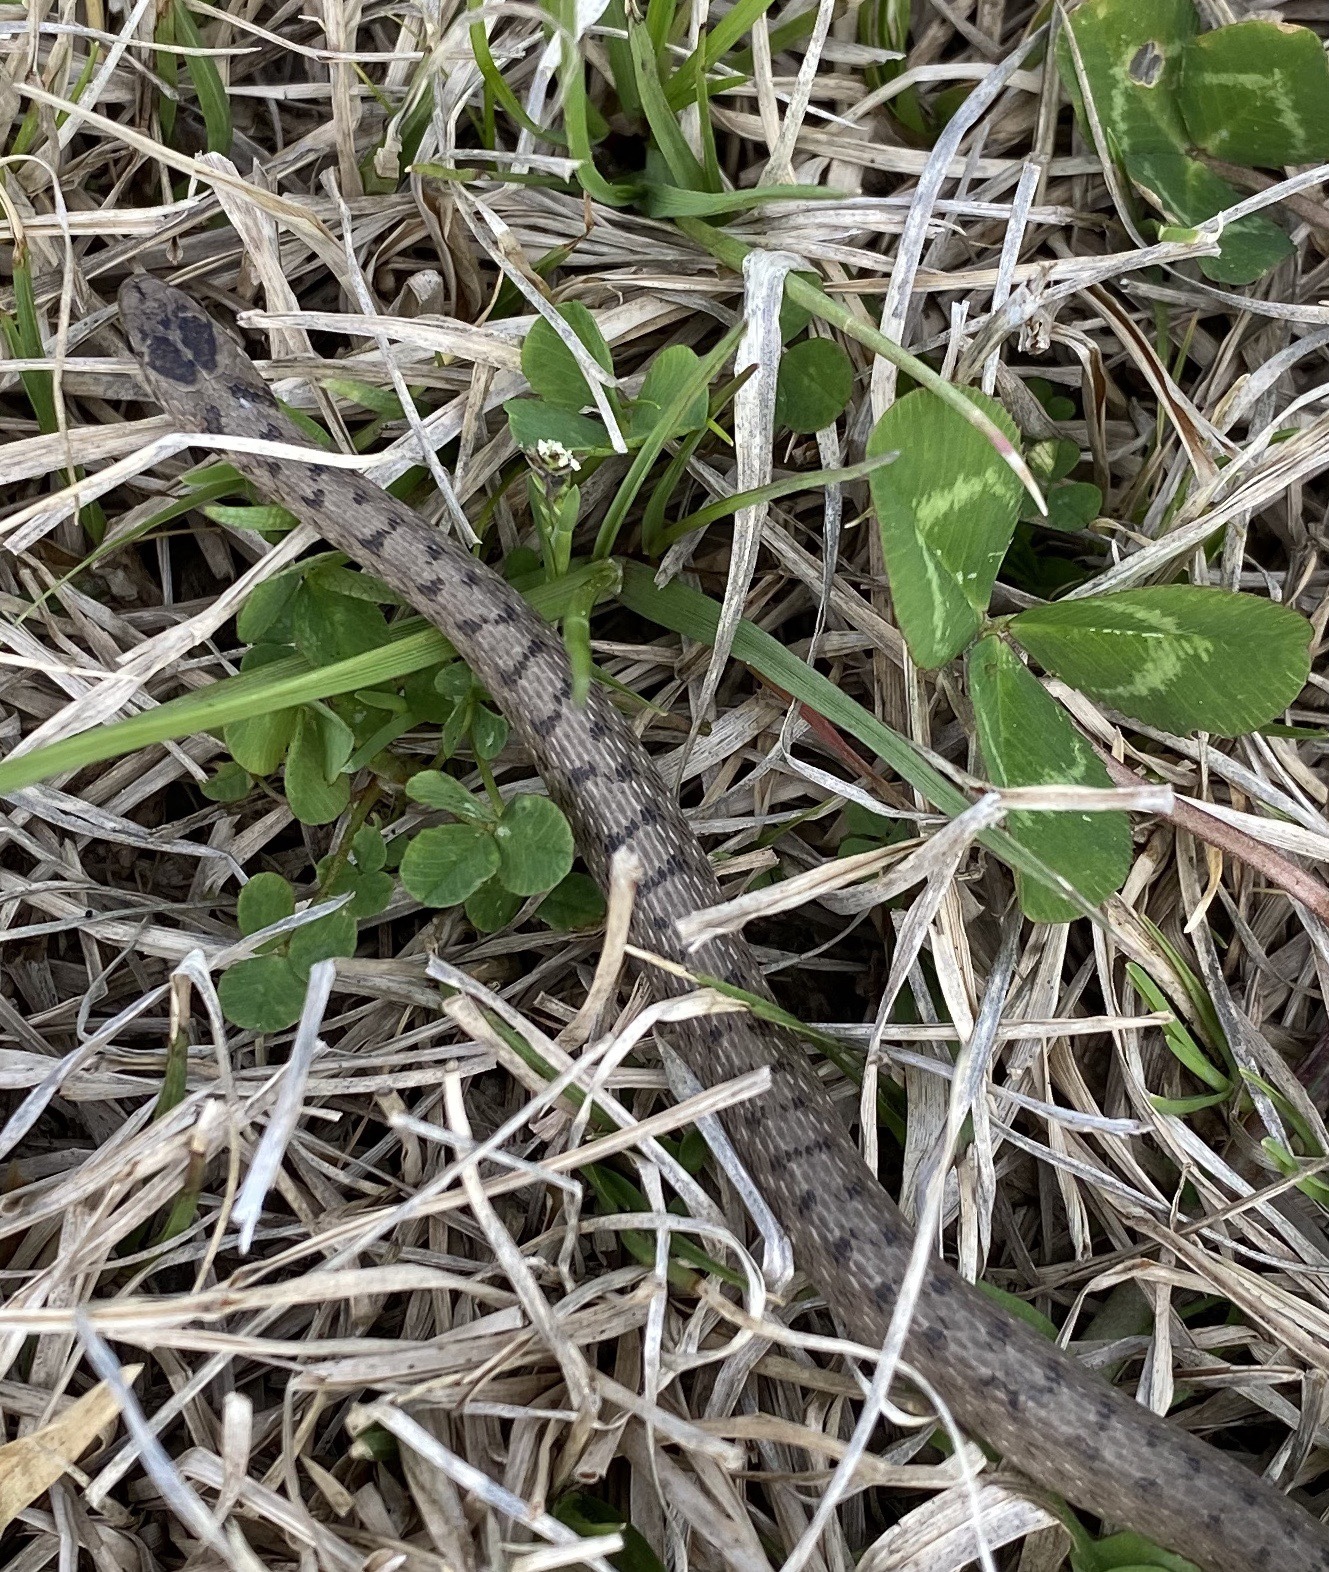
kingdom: Animalia
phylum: Chordata
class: Squamata
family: Colubridae
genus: Storeria
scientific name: Storeria dekayi
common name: (dekay’s) brown snake
